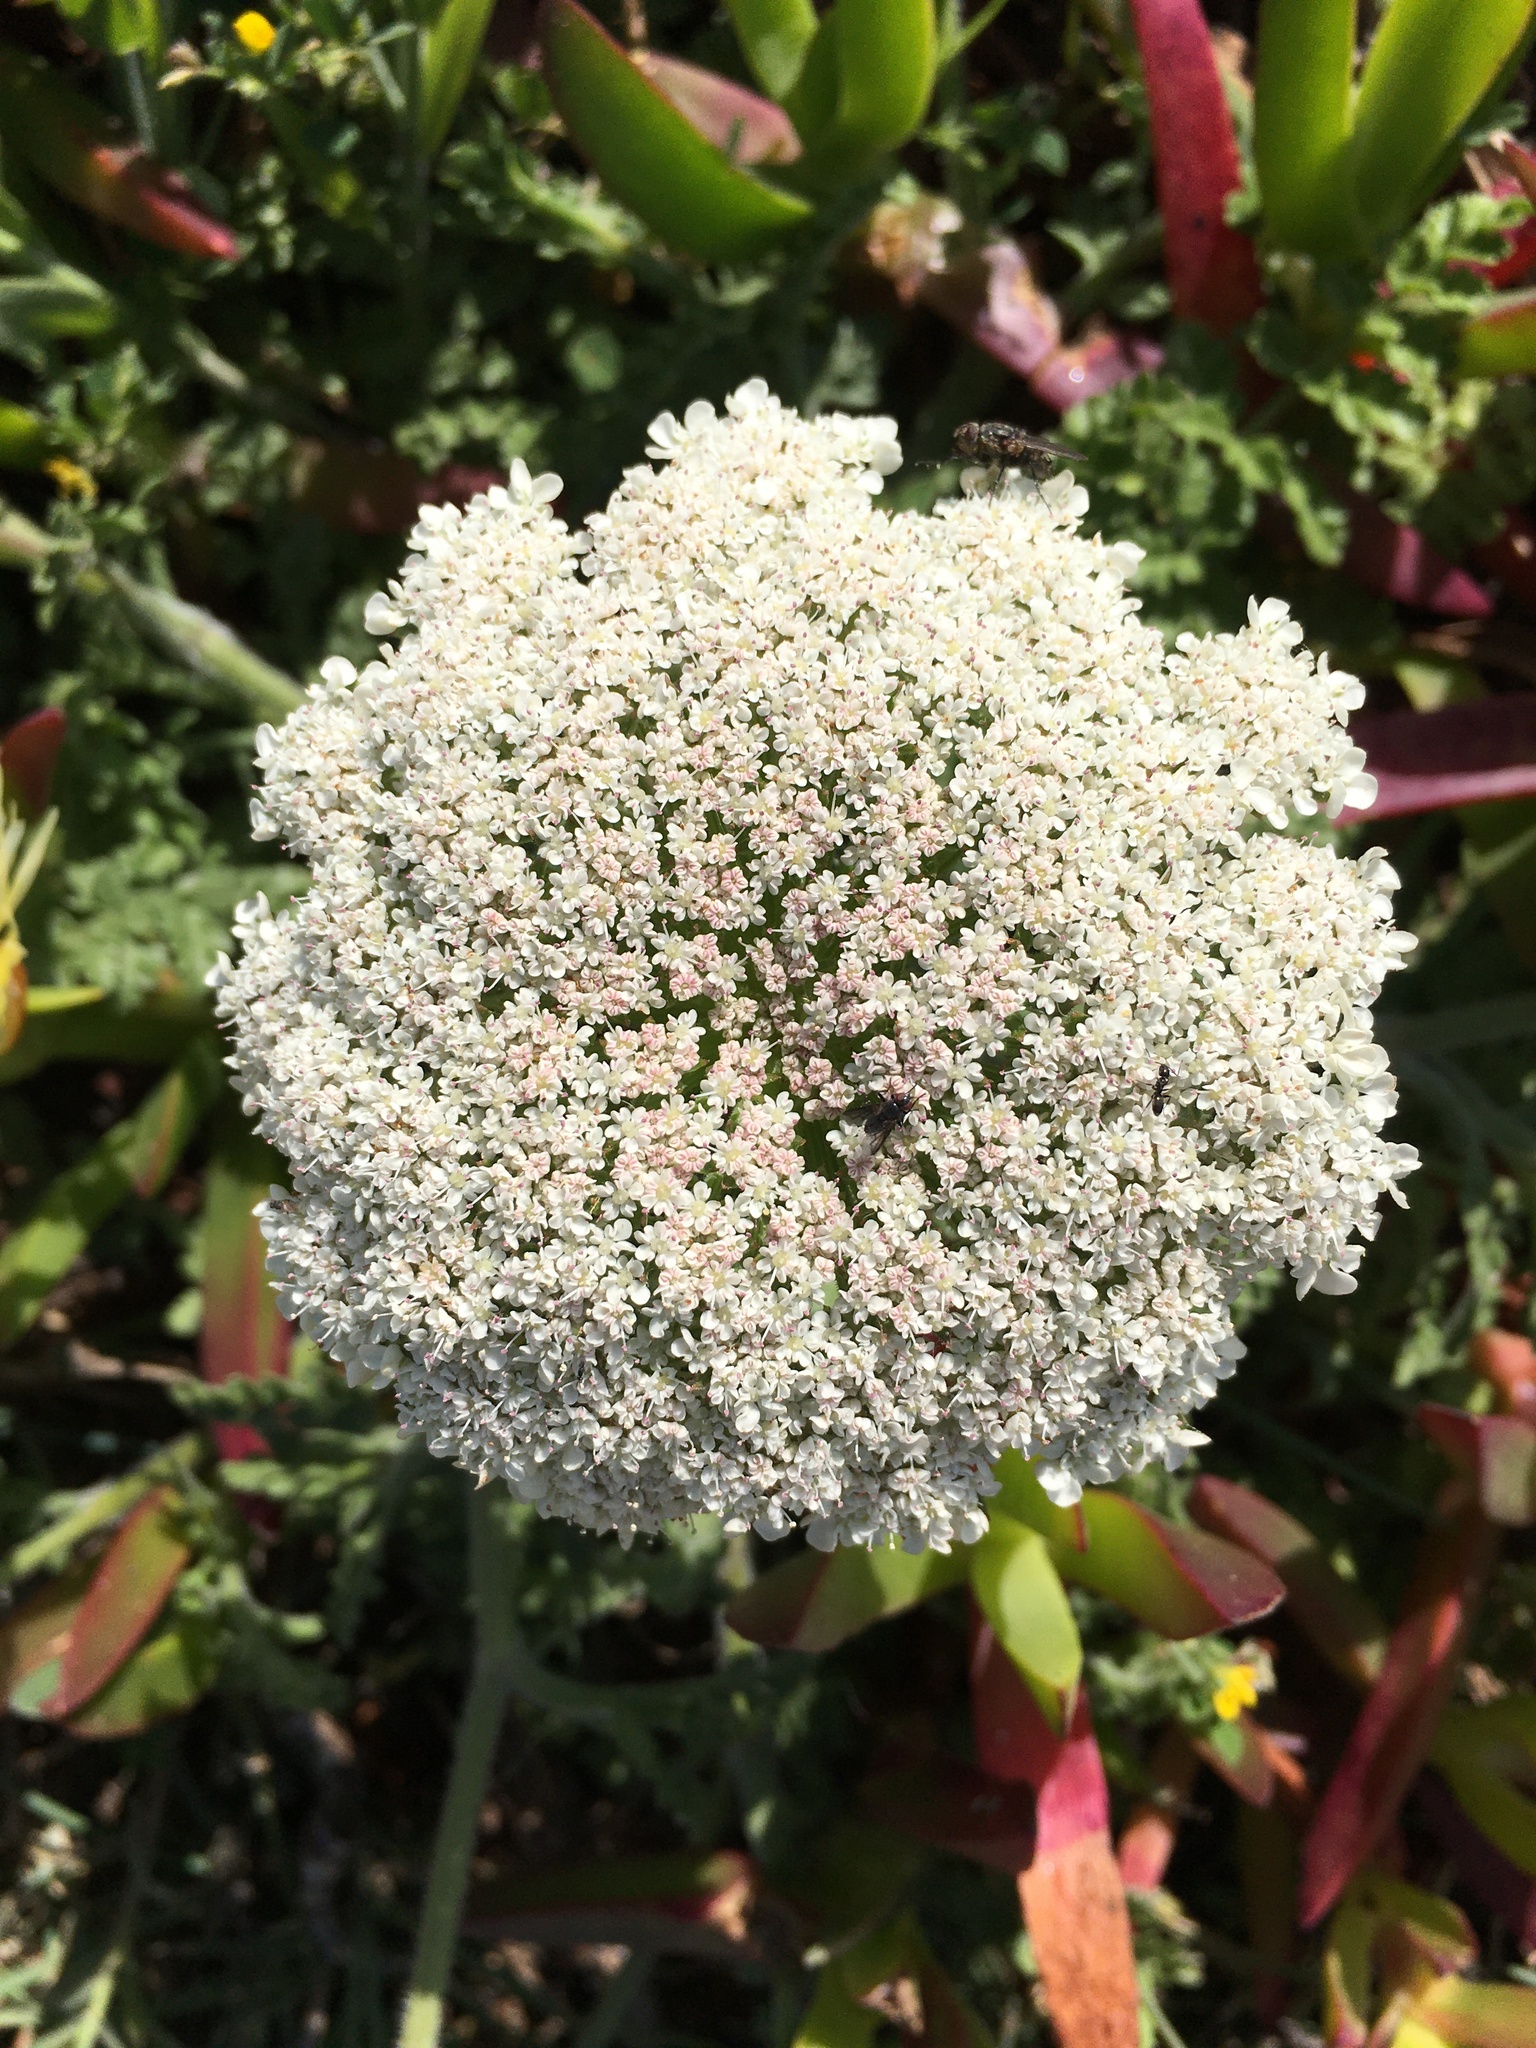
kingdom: Plantae
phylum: Tracheophyta
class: Magnoliopsida
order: Apiales
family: Apiaceae
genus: Daucus
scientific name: Daucus carota
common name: Wild carrot
